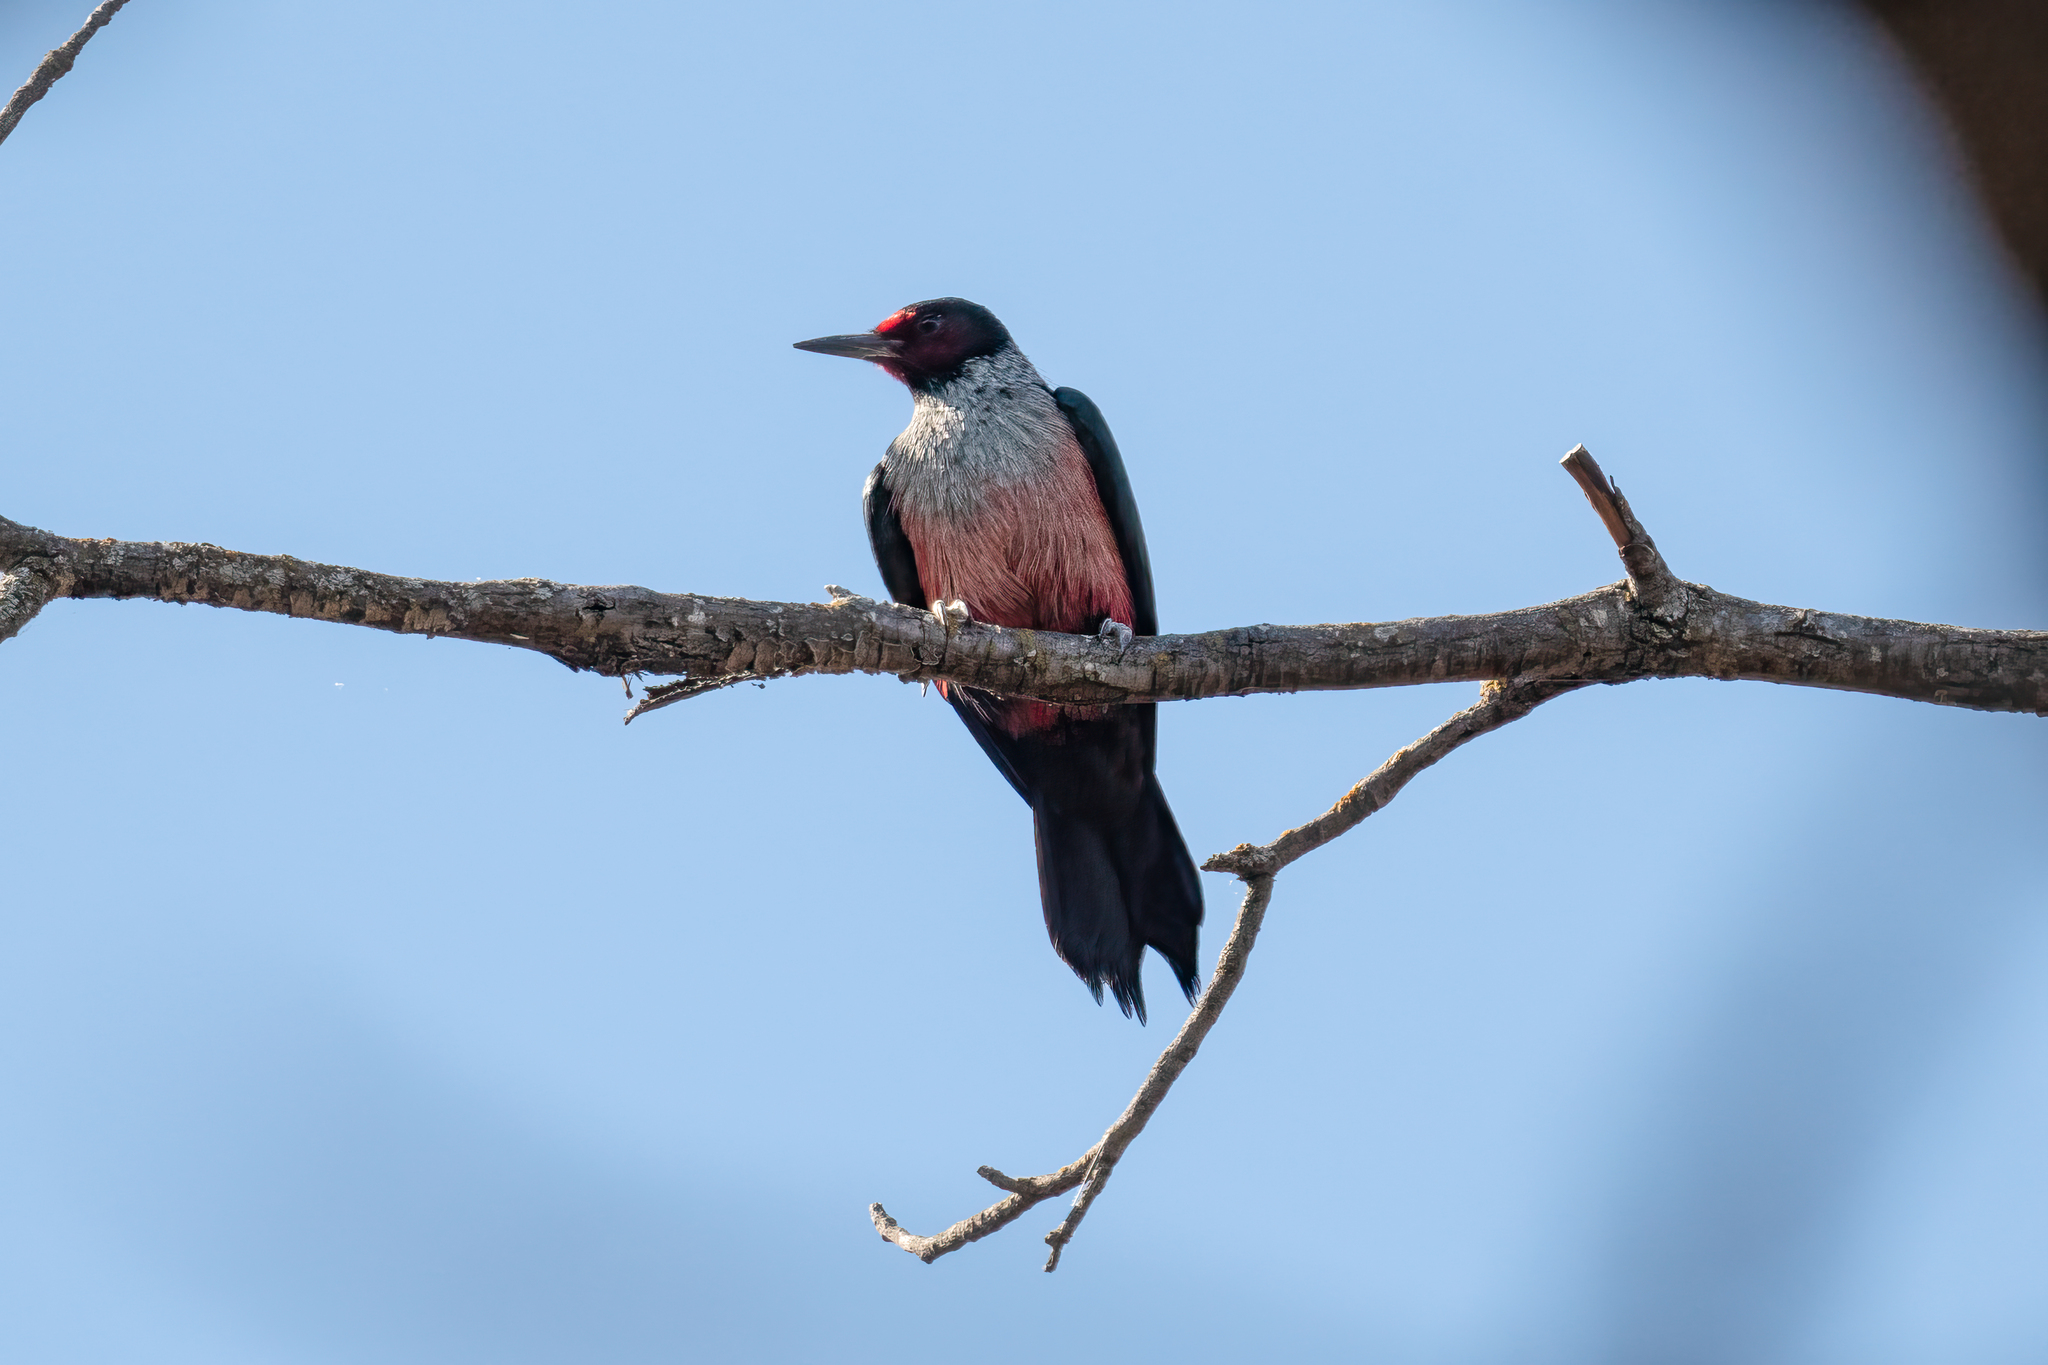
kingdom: Animalia
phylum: Chordata
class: Aves
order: Piciformes
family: Picidae
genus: Melanerpes
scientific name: Melanerpes lewis
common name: Lewis's woodpecker
